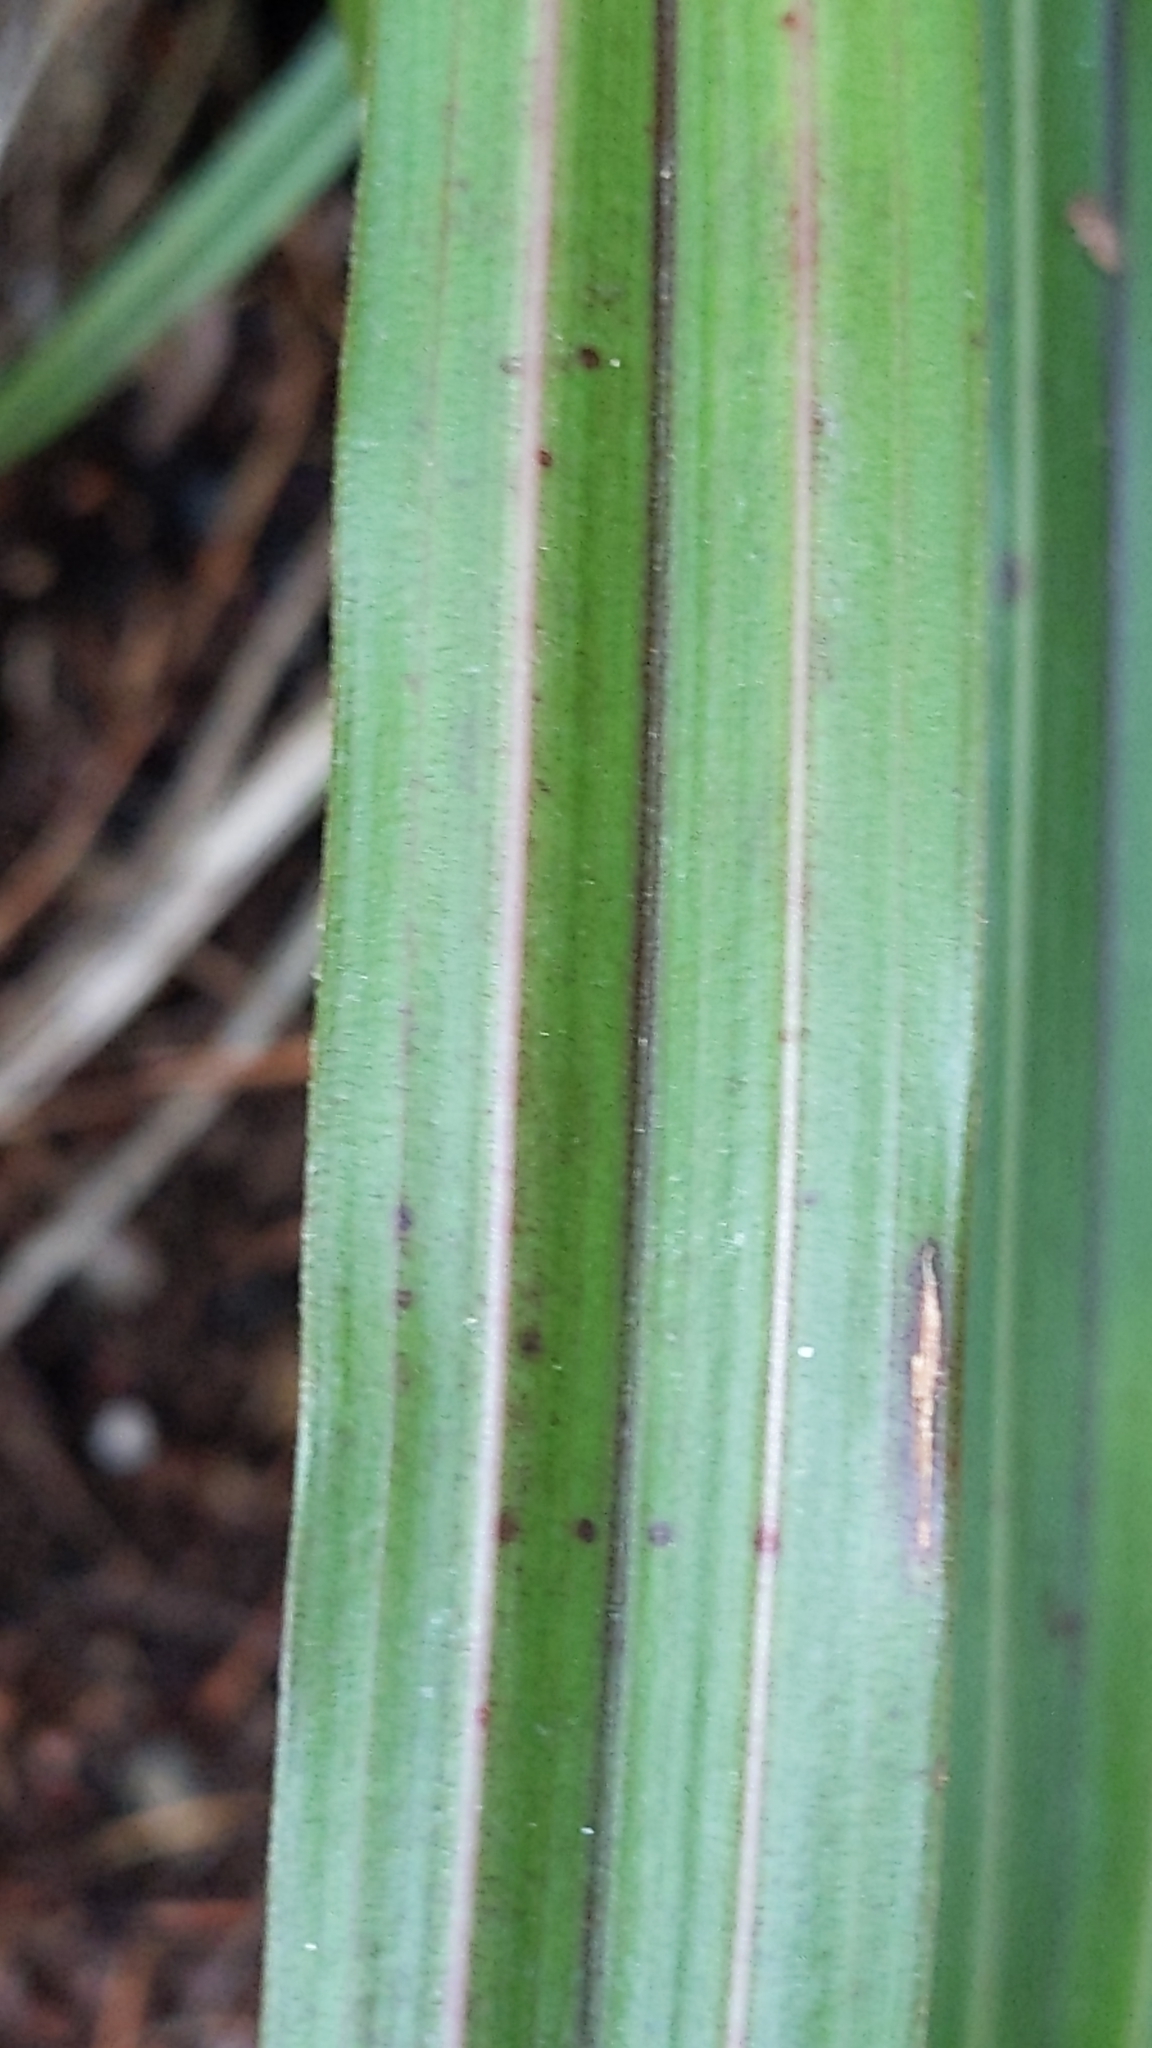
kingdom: Plantae
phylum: Tracheophyta
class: Liliopsida
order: Asparagales
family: Asteliaceae
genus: Astelia
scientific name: Astelia fragrans
